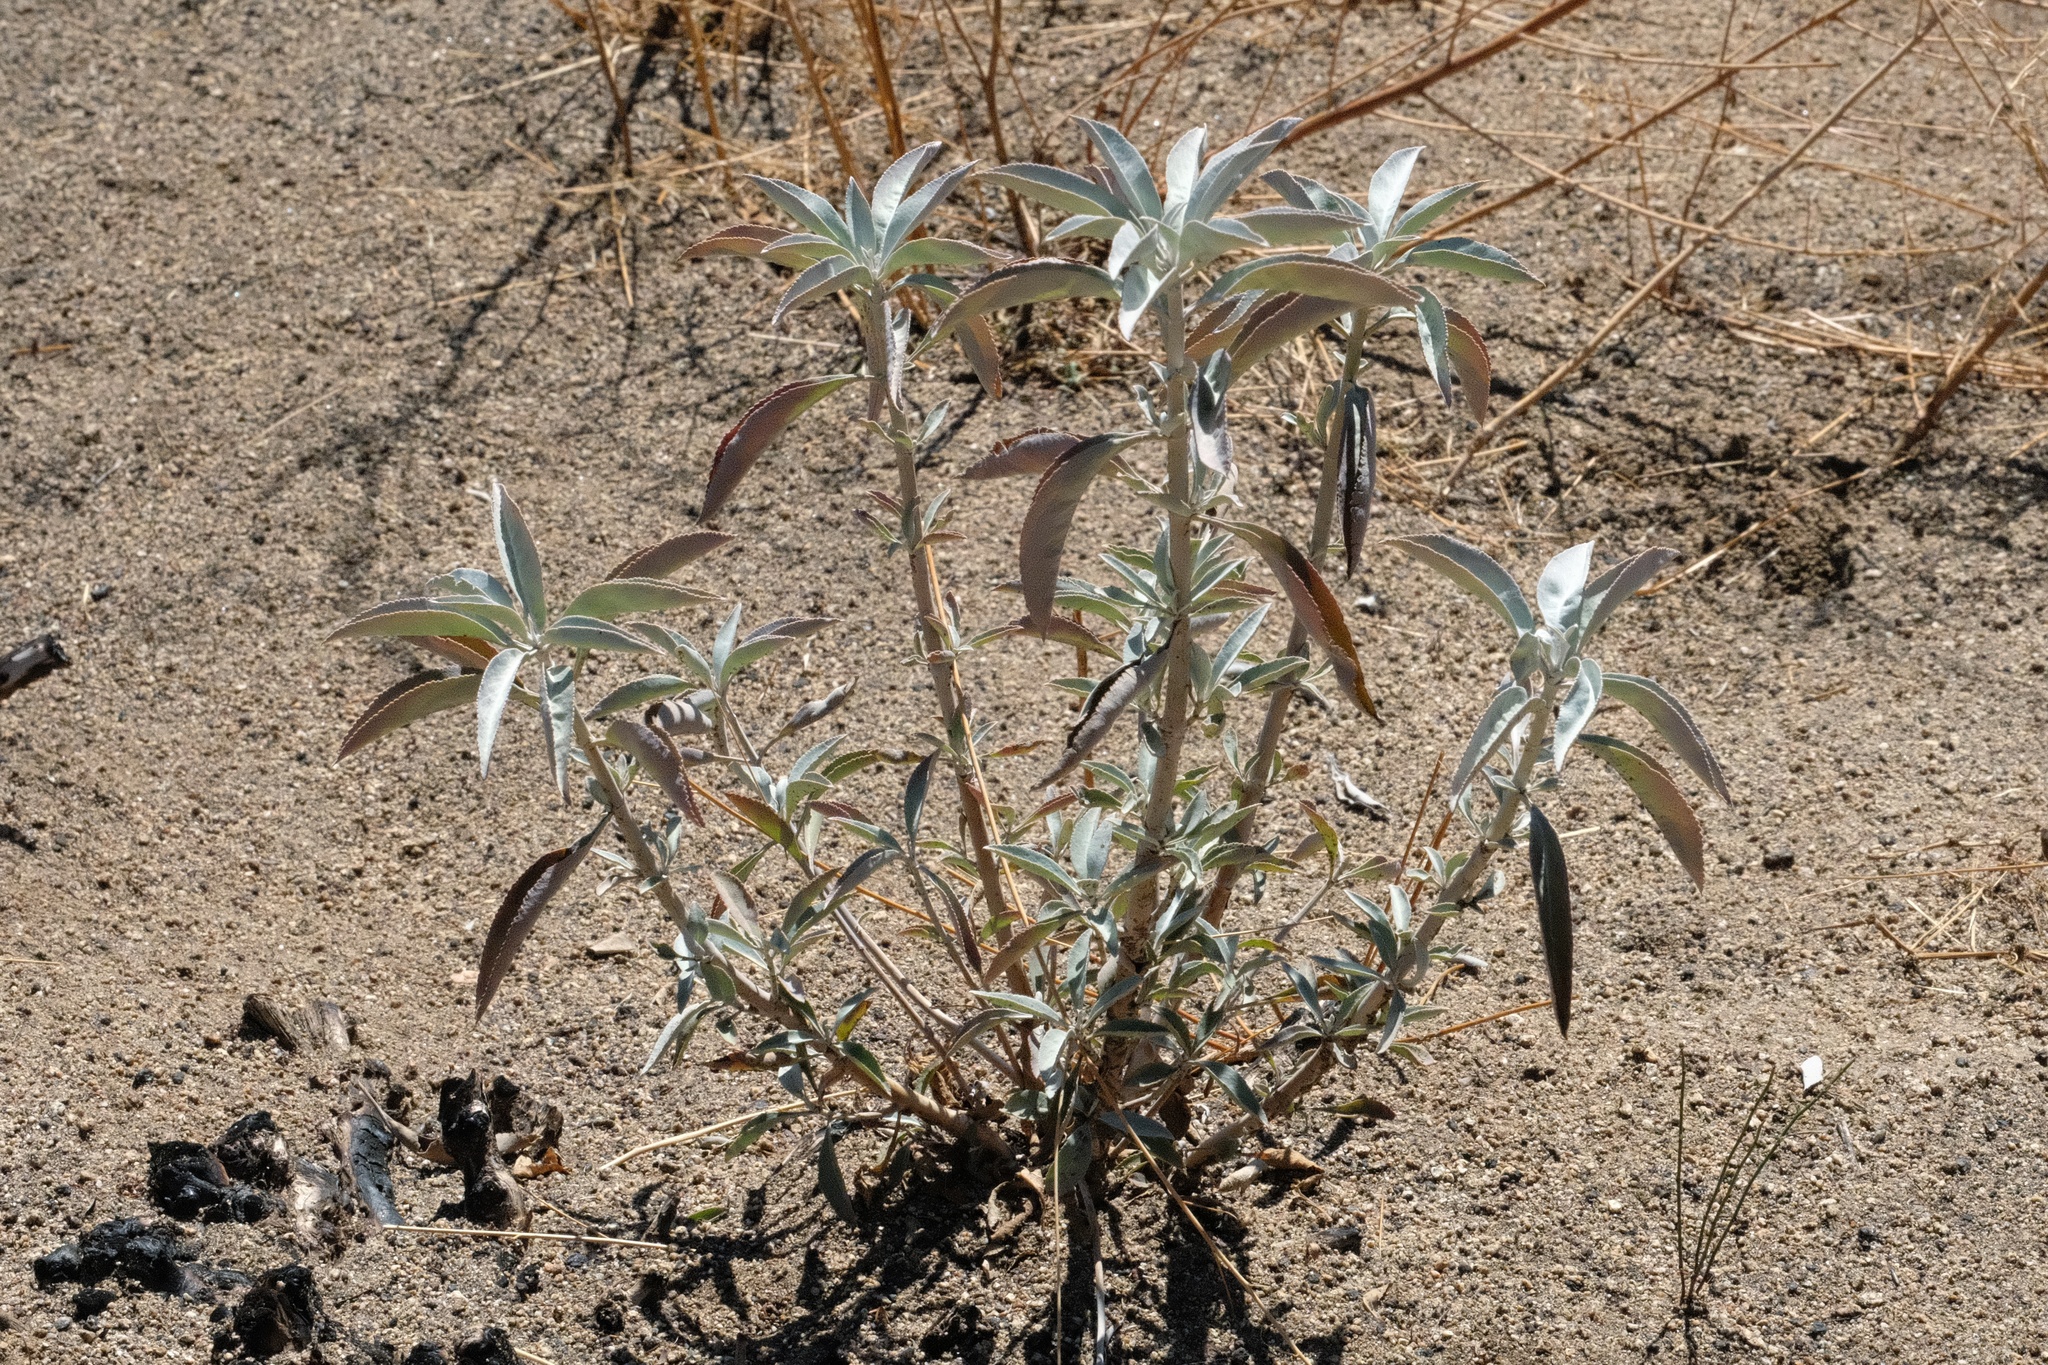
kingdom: Plantae
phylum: Tracheophyta
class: Magnoliopsida
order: Lamiales
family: Lamiaceae
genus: Salvia
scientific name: Salvia apiana
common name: White sage
